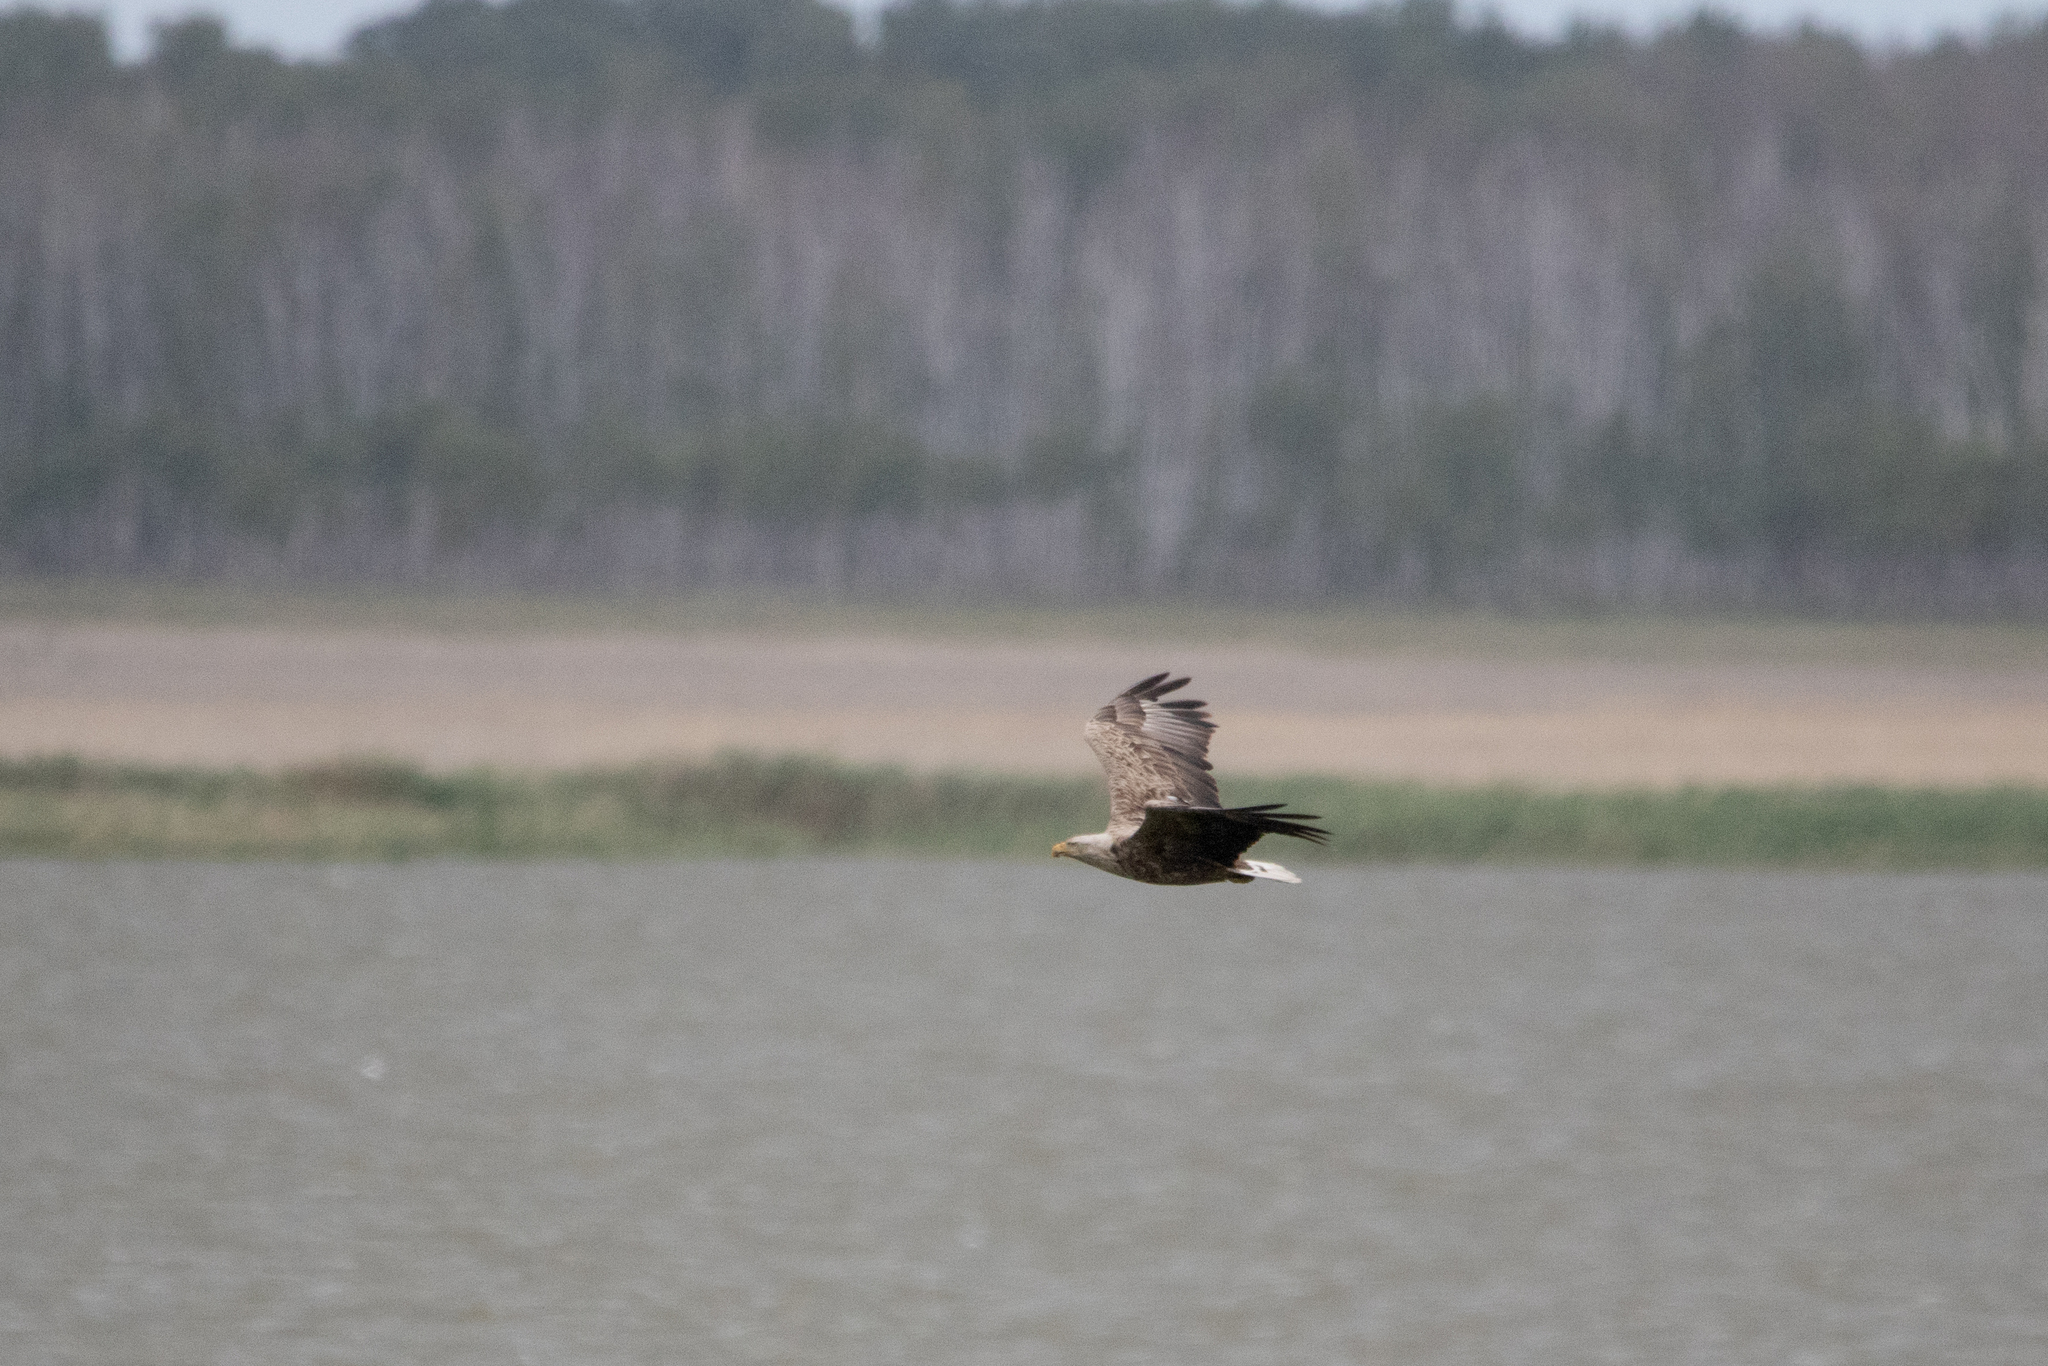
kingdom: Animalia
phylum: Chordata
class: Aves
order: Accipitriformes
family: Accipitridae
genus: Haliaeetus
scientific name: Haliaeetus albicilla
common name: White-tailed eagle
